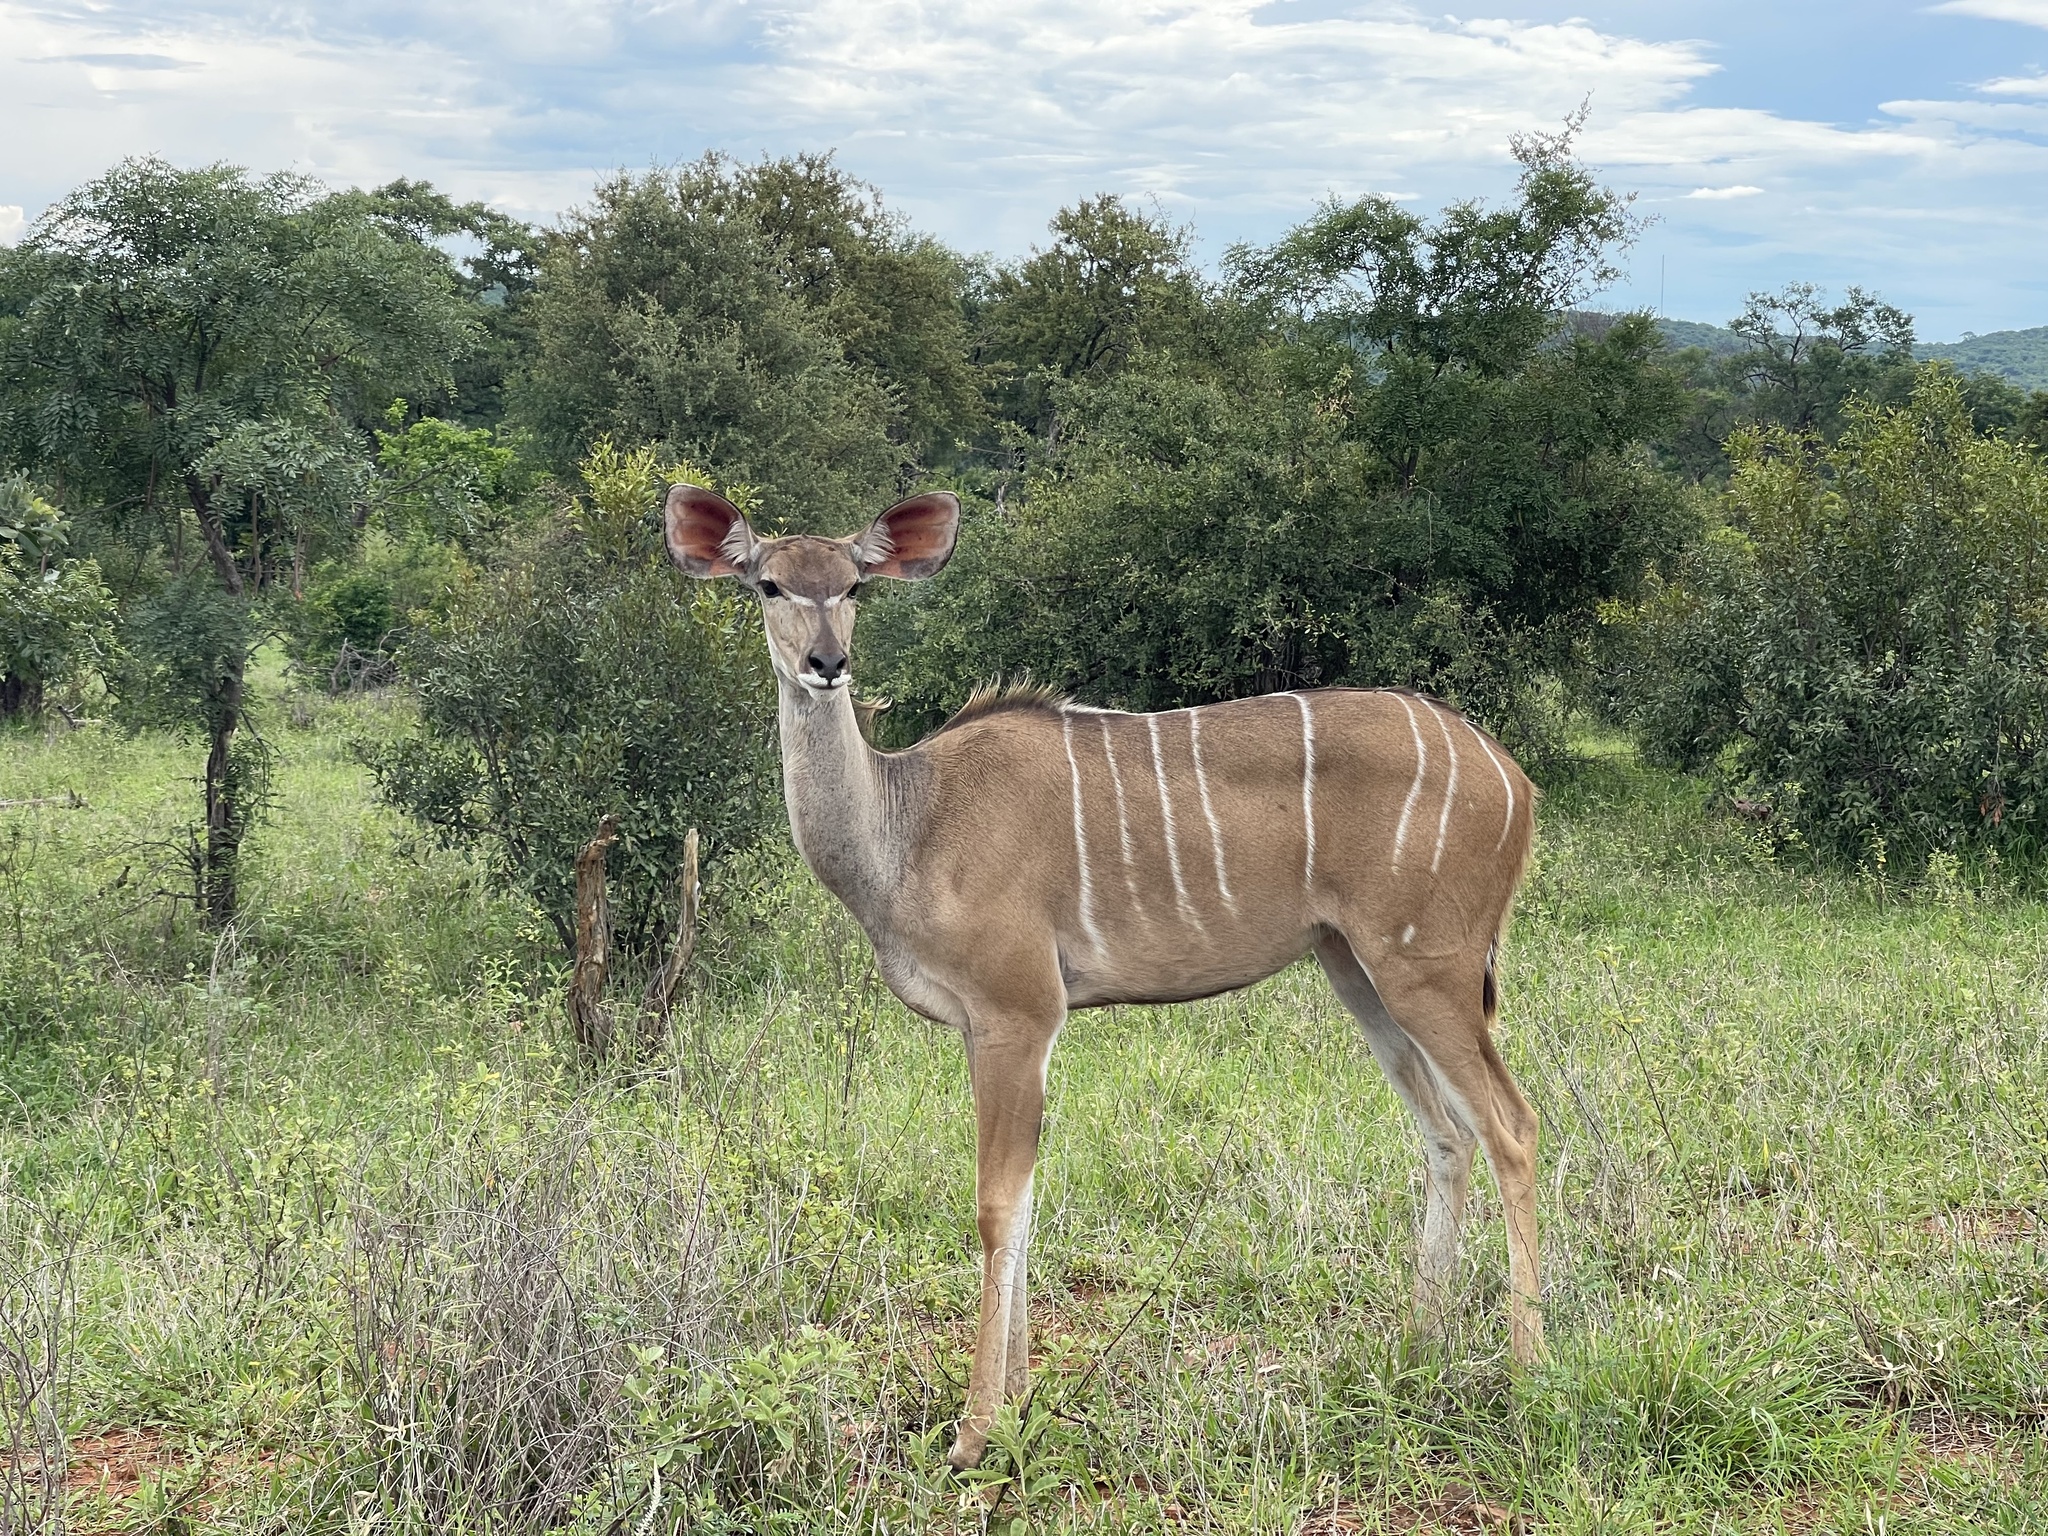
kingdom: Animalia
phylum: Chordata
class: Mammalia
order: Artiodactyla
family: Bovidae
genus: Tragelaphus
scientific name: Tragelaphus strepsiceros
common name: Greater kudu
